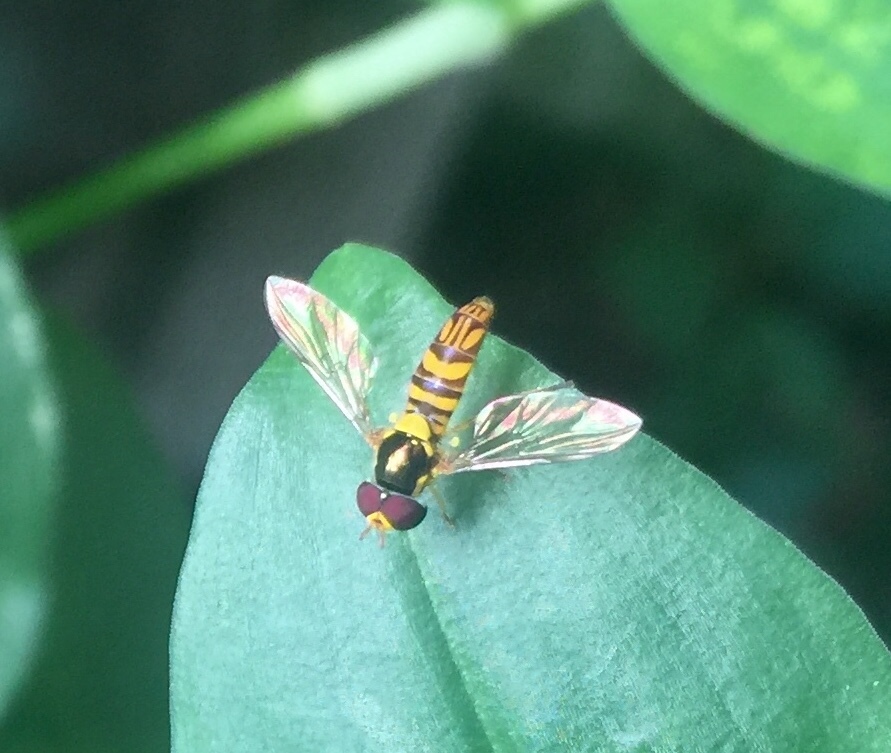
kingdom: Animalia
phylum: Arthropoda
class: Insecta
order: Diptera
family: Syrphidae
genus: Allograpta
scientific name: Allograpta obliqua
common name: Common oblique syrphid
